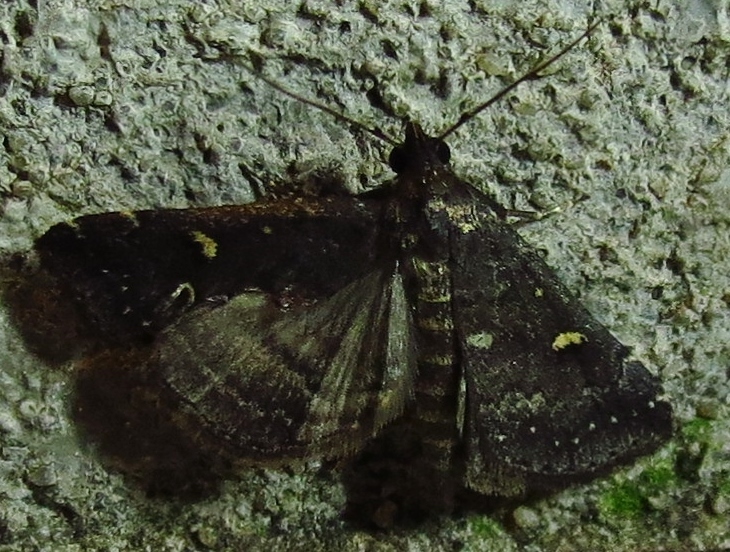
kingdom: Animalia
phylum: Arthropoda
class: Insecta
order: Lepidoptera
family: Erebidae
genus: Tetanolita
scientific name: Tetanolita mynesalis
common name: Smoky tetanolita moth
